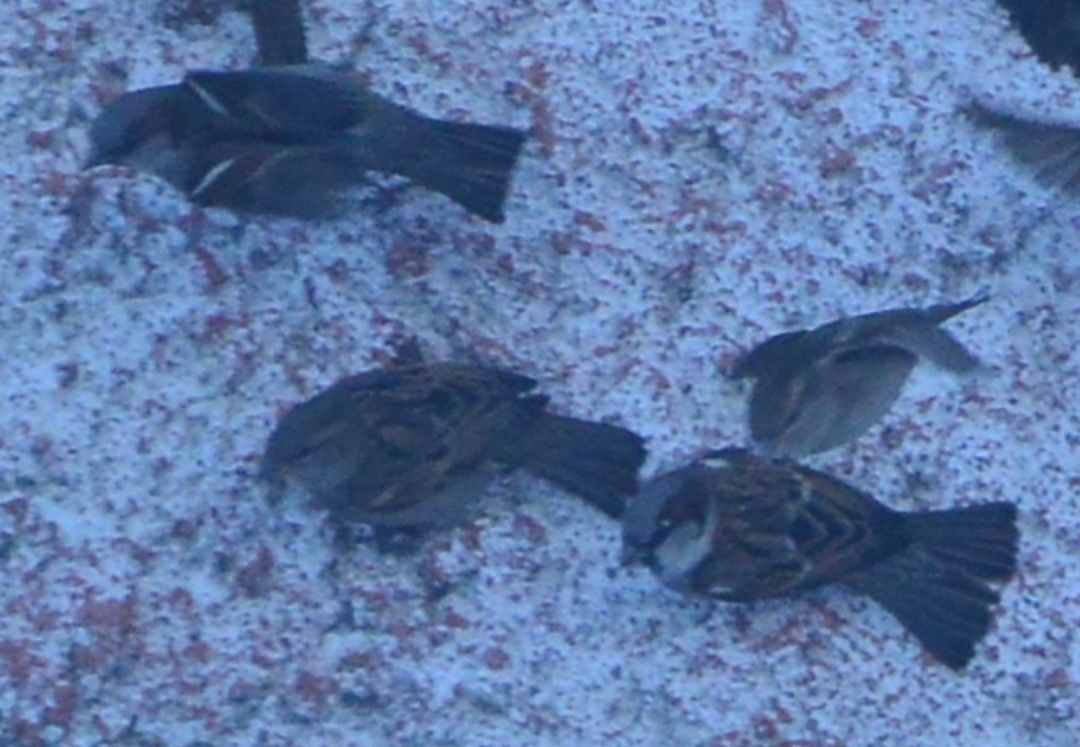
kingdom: Animalia
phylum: Chordata
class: Aves
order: Passeriformes
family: Passeridae
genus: Passer
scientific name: Passer domesticus
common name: House sparrow
